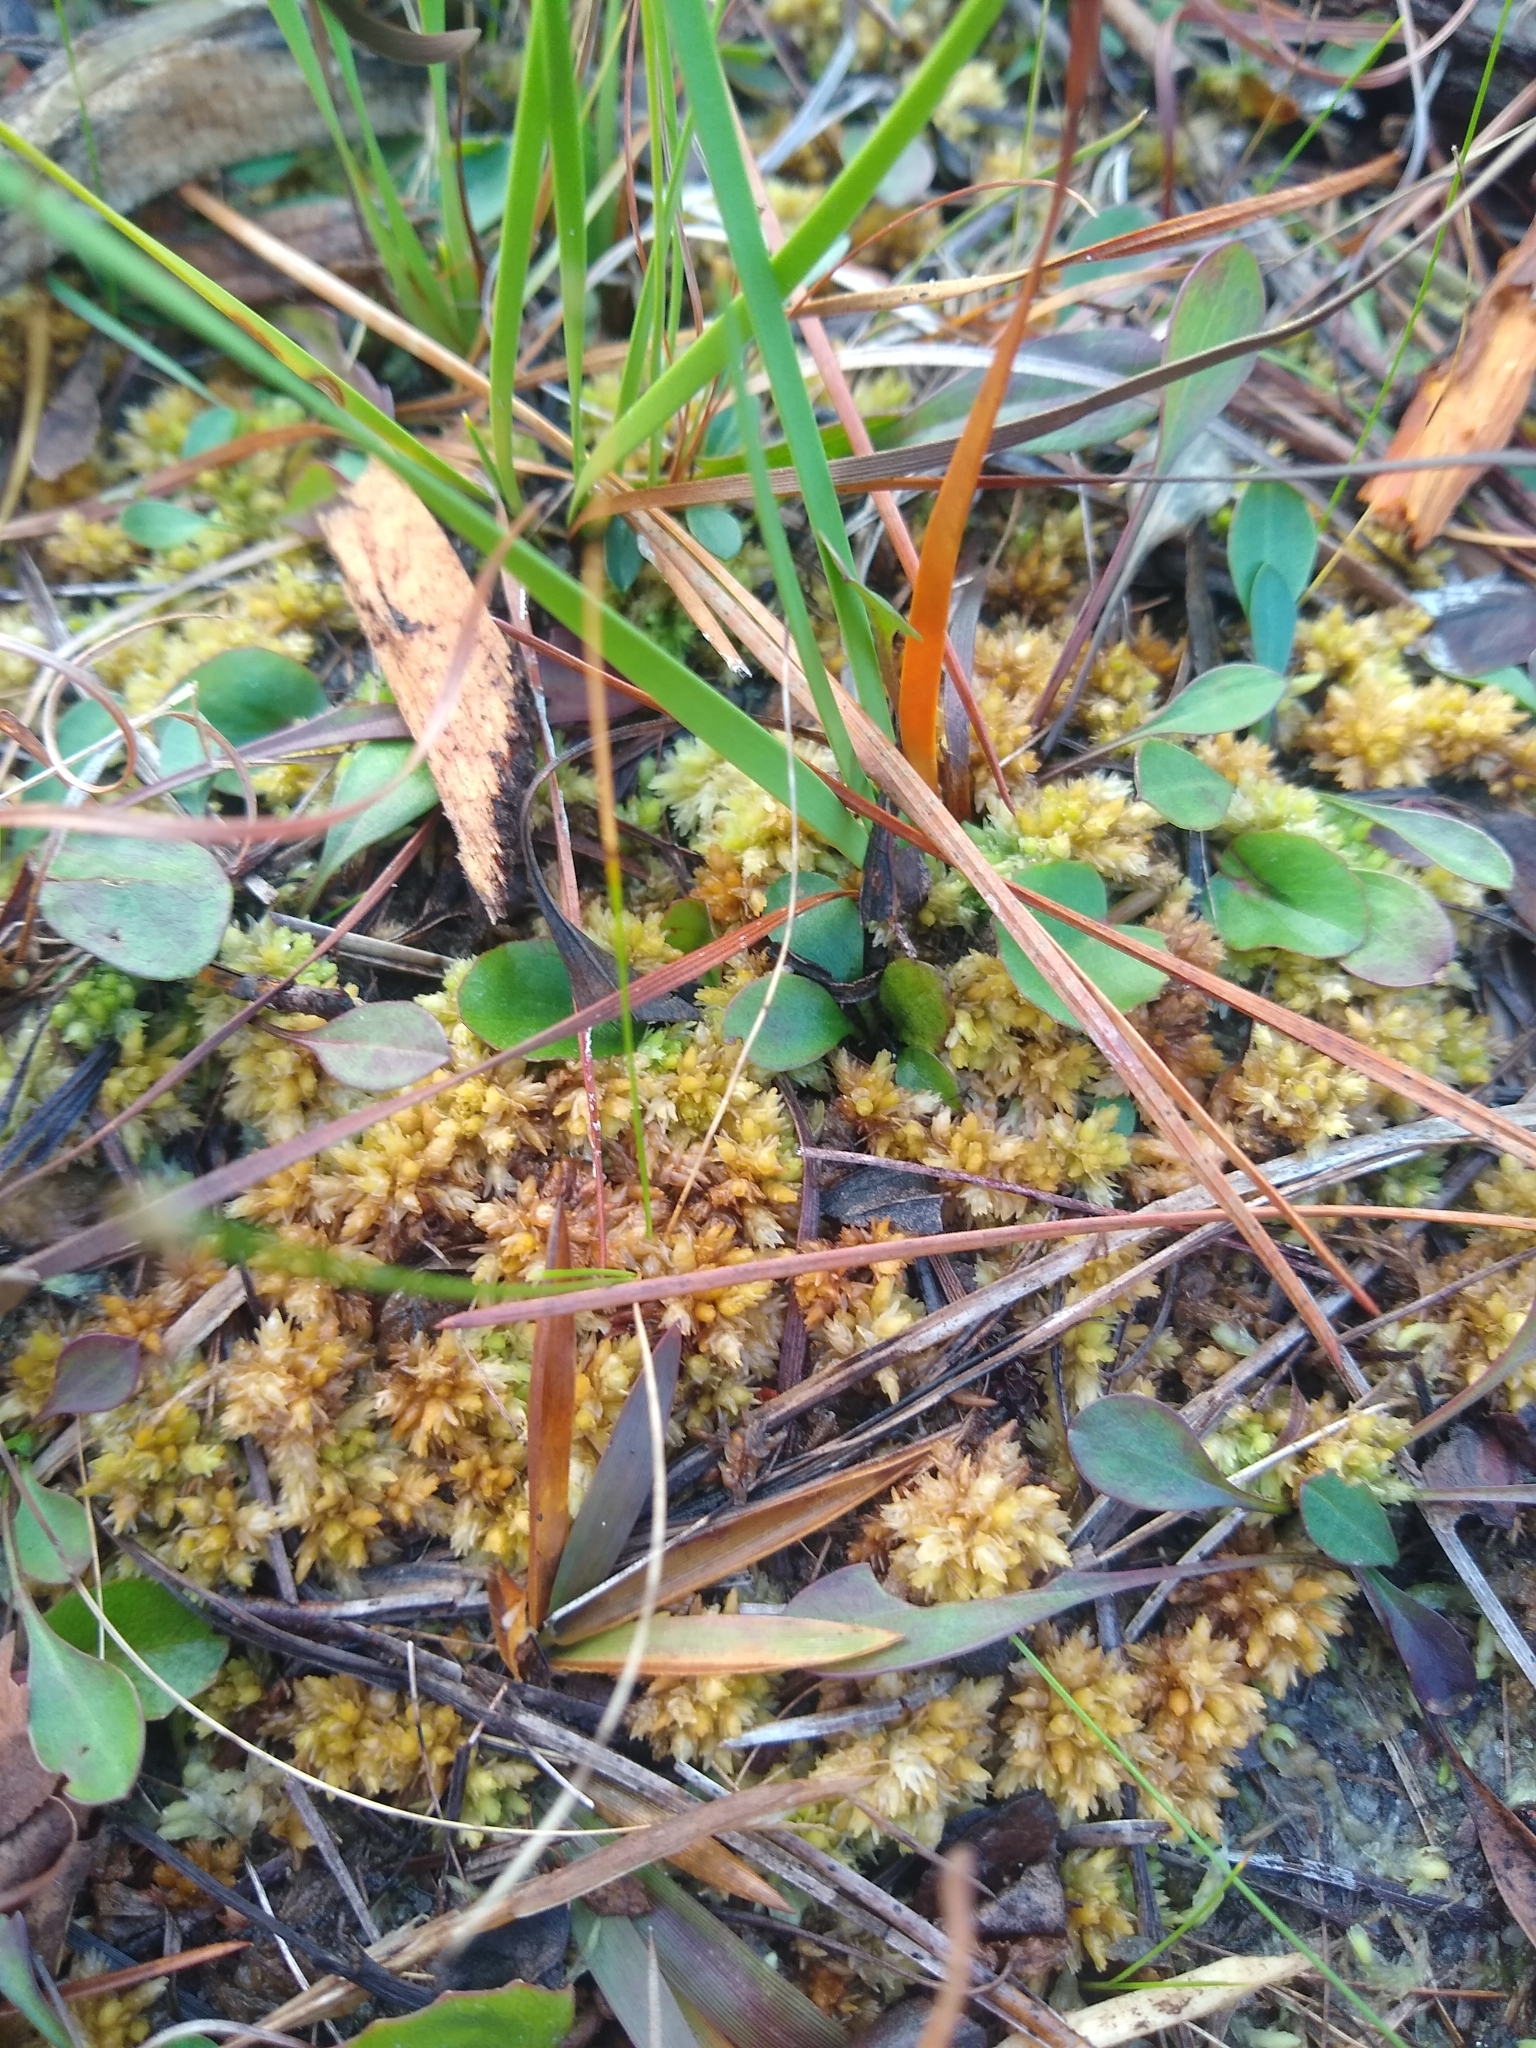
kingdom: Plantae
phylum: Bryophyta
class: Sphagnopsida
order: Sphagnales
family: Sphagnaceae
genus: Sphagnum
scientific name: Sphagnum perichaetiale
